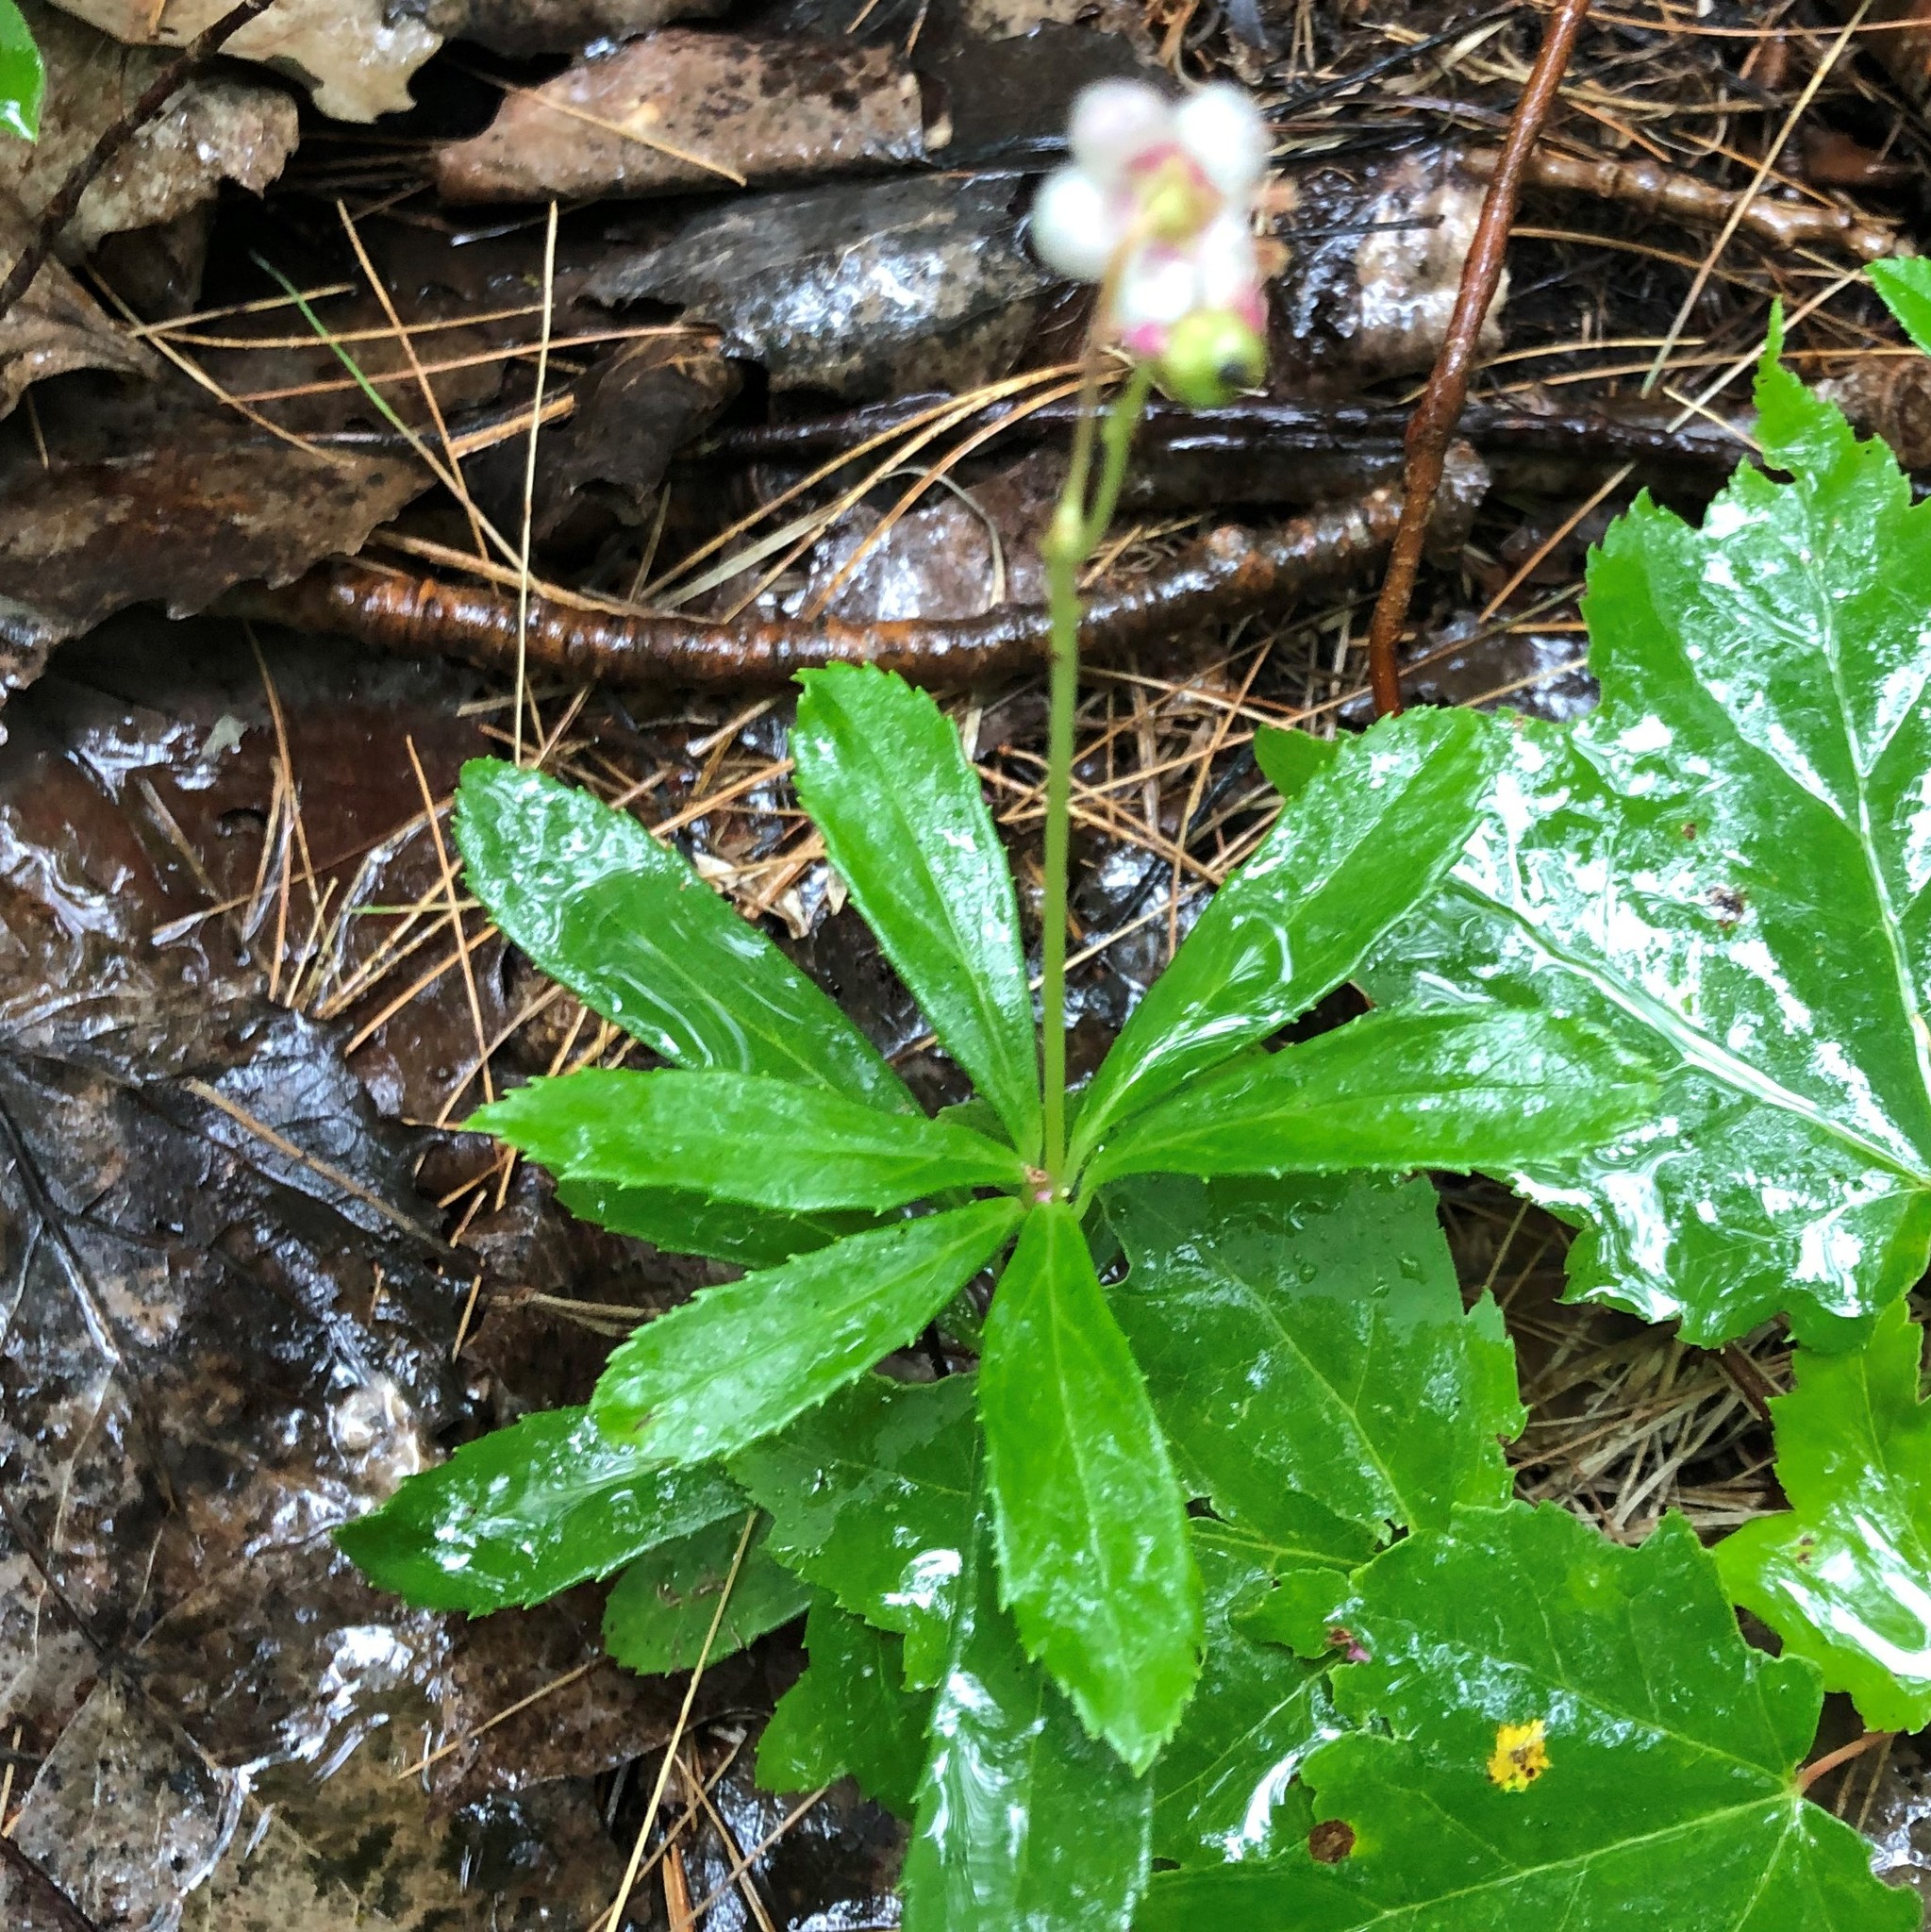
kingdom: Plantae
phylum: Tracheophyta
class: Magnoliopsida
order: Ericales
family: Ericaceae
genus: Chimaphila
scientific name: Chimaphila umbellata
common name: Pipsissewa
